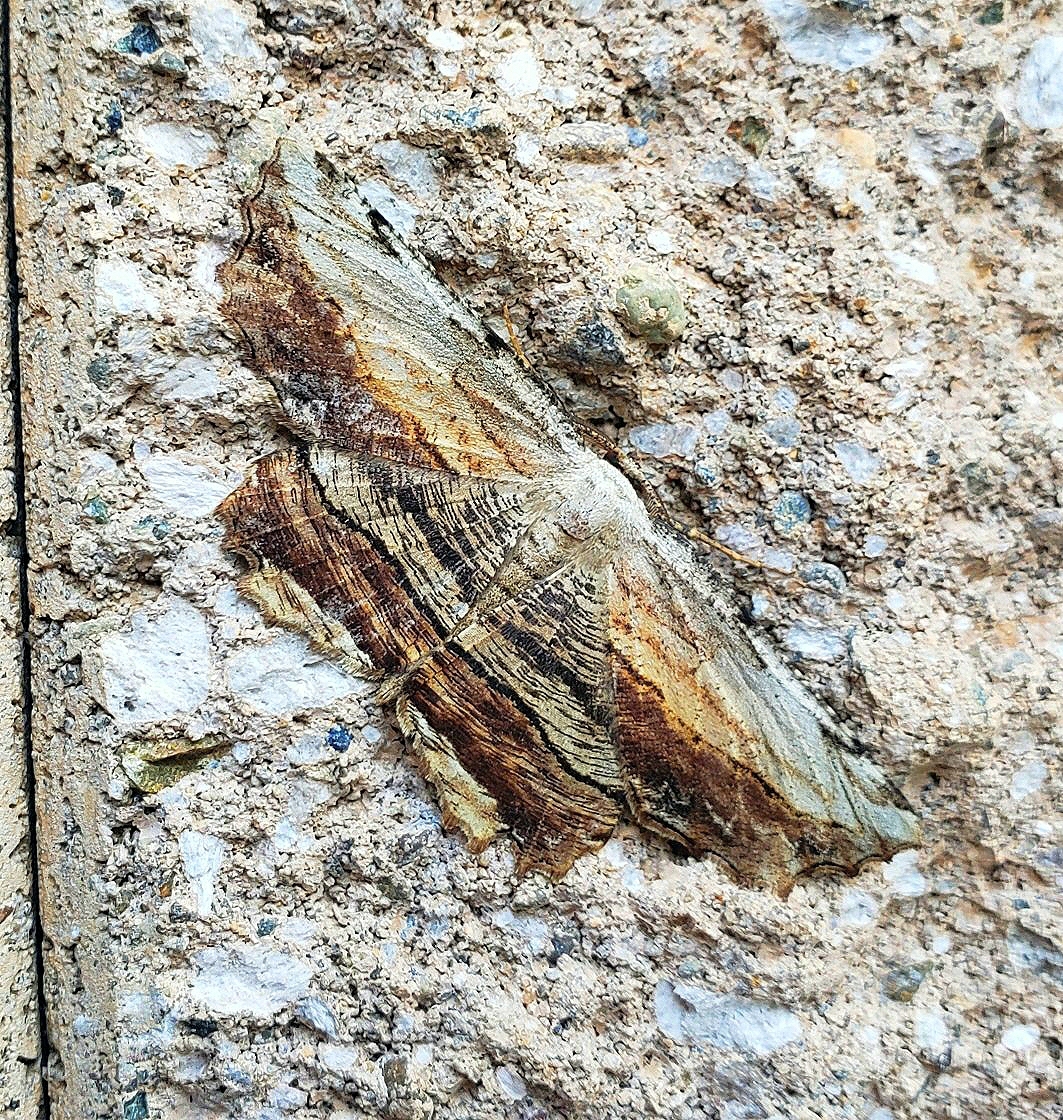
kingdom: Animalia
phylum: Arthropoda
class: Insecta
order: Lepidoptera
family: Geometridae
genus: Lytrosis
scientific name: Lytrosis unitaria
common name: Common lytrosis
